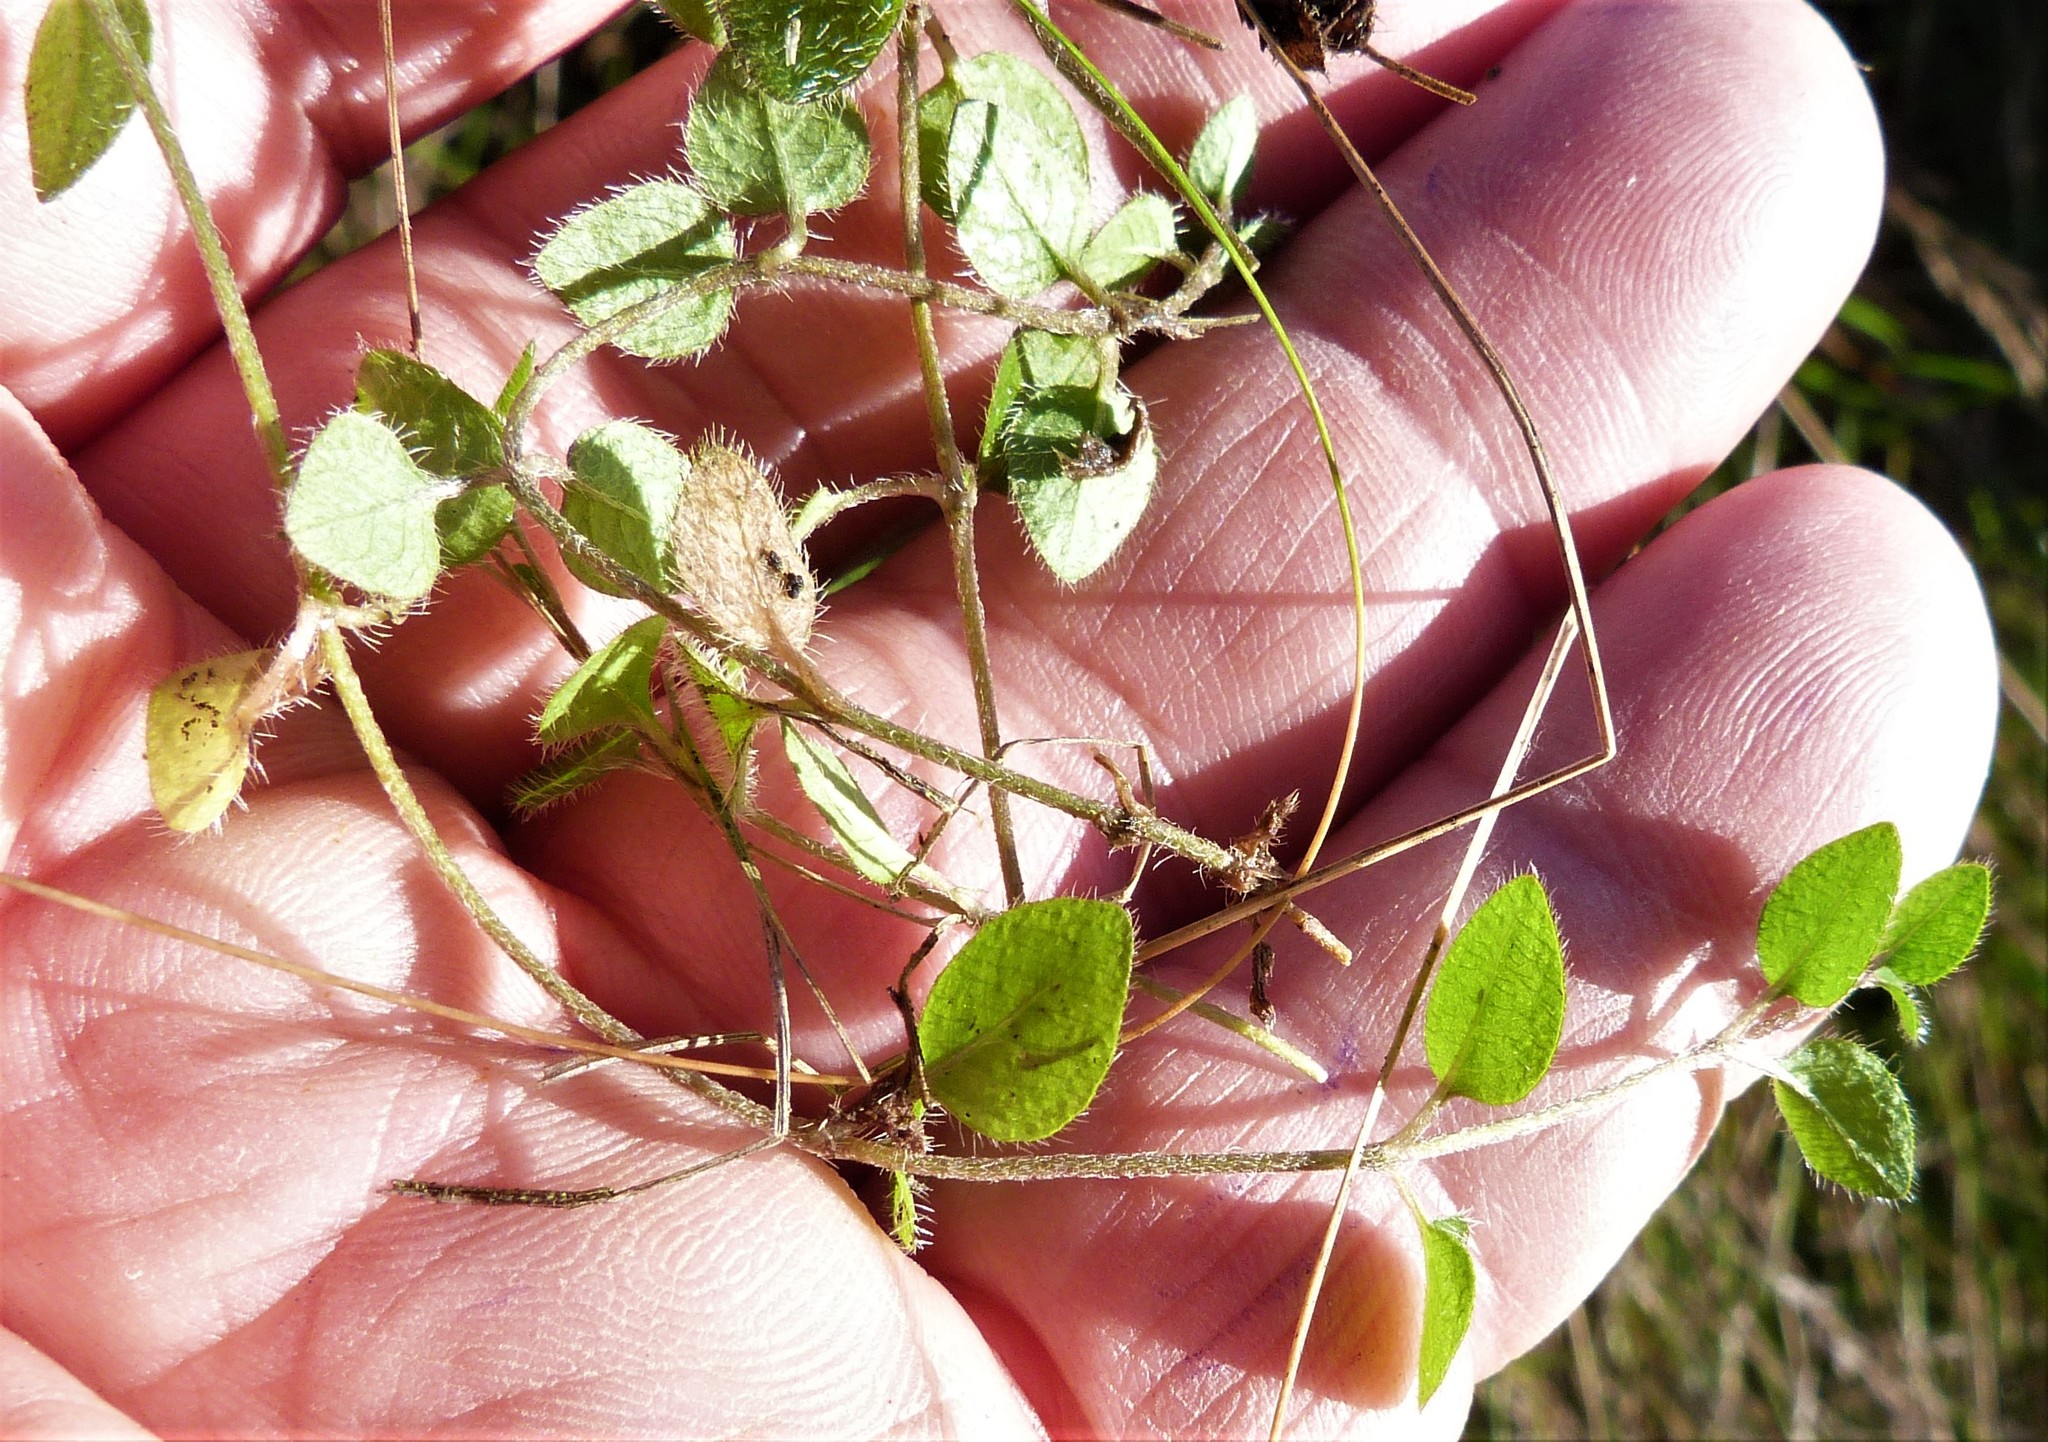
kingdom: Plantae
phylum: Tracheophyta
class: Magnoliopsida
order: Gentianales
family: Rubiaceae
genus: Leptostigma
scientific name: Leptostigma setulosum
